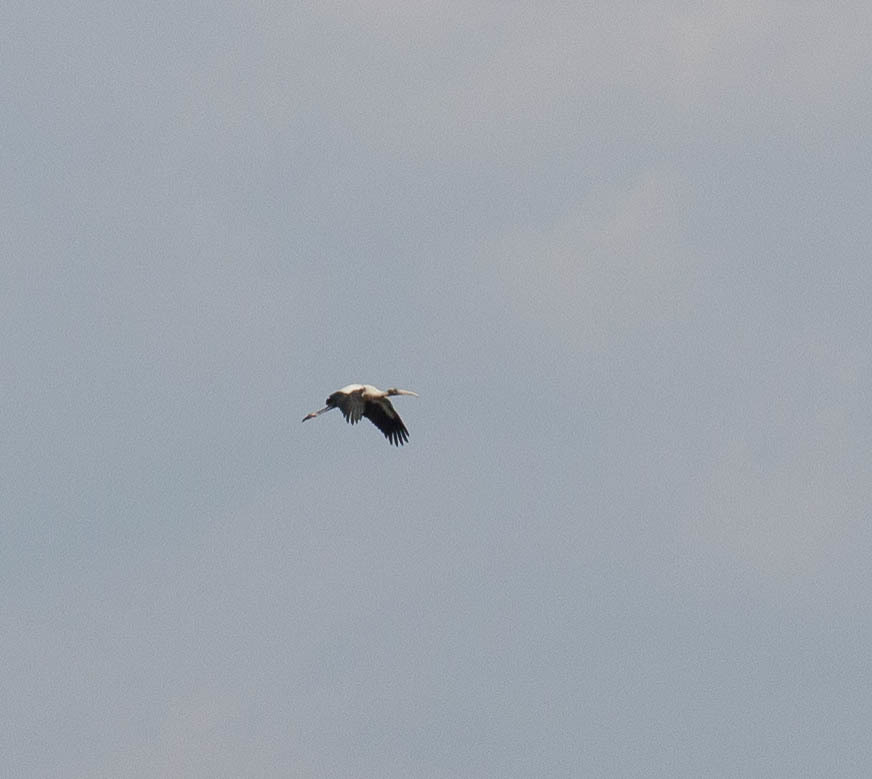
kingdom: Animalia
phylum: Chordata
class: Aves
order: Ciconiiformes
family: Ciconiidae
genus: Mycteria
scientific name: Mycteria americana
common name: Wood stork
